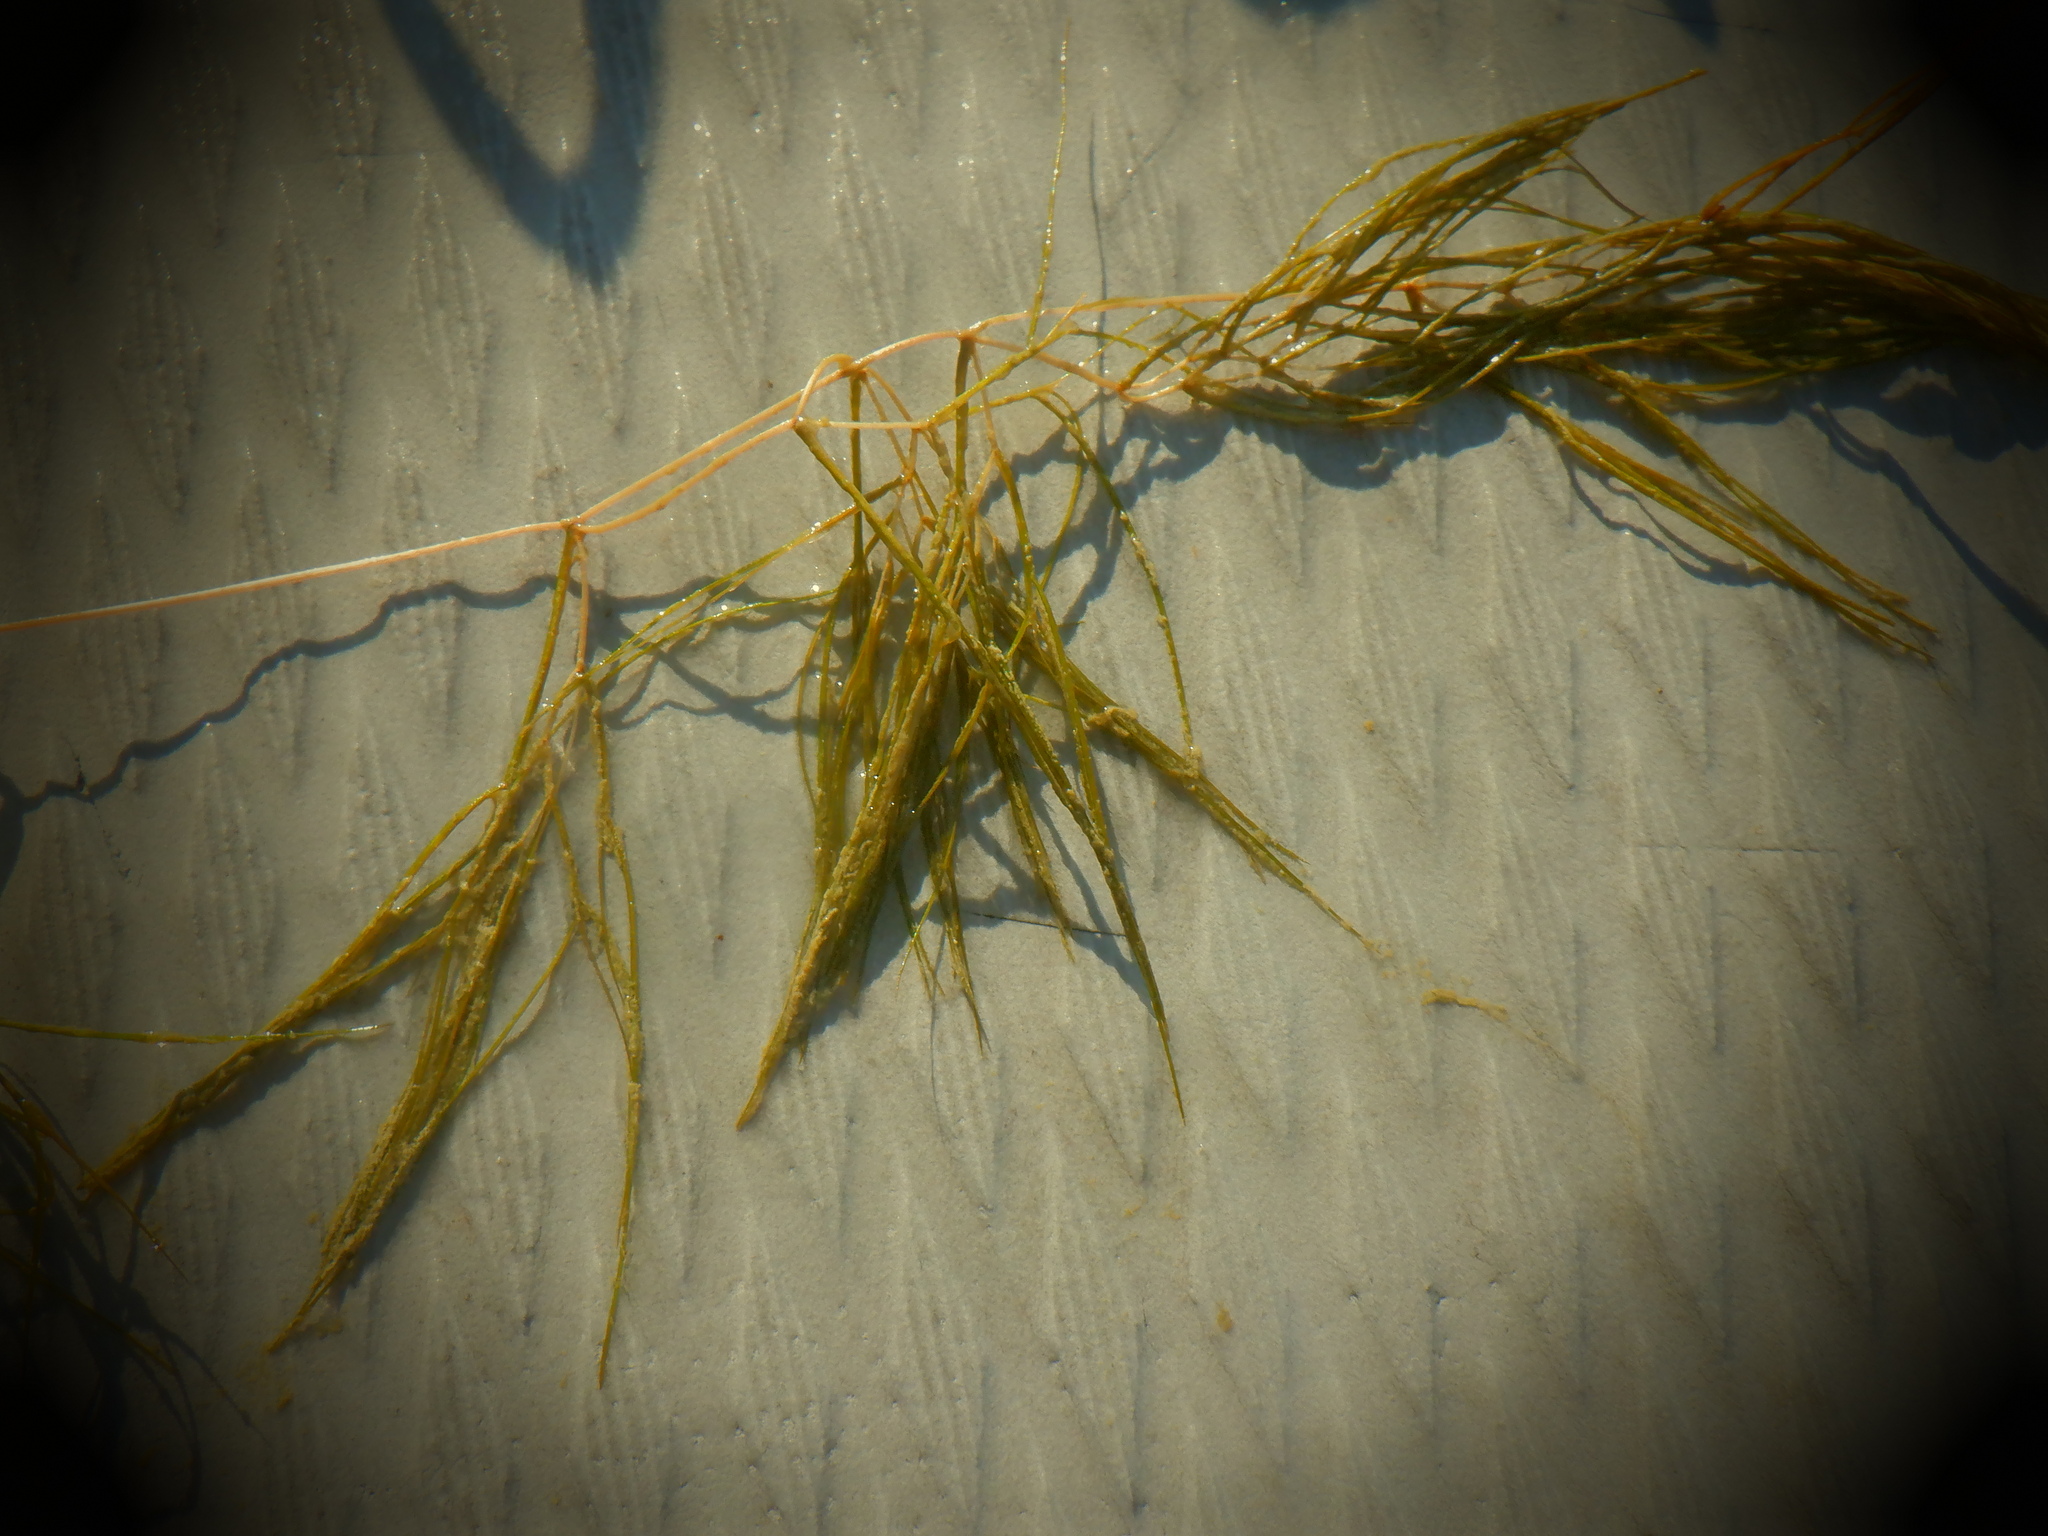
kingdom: Plantae
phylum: Tracheophyta
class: Liliopsida
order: Alismatales
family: Potamogetonaceae
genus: Stuckenia
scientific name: Stuckenia pectinata
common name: Sago pondweed
